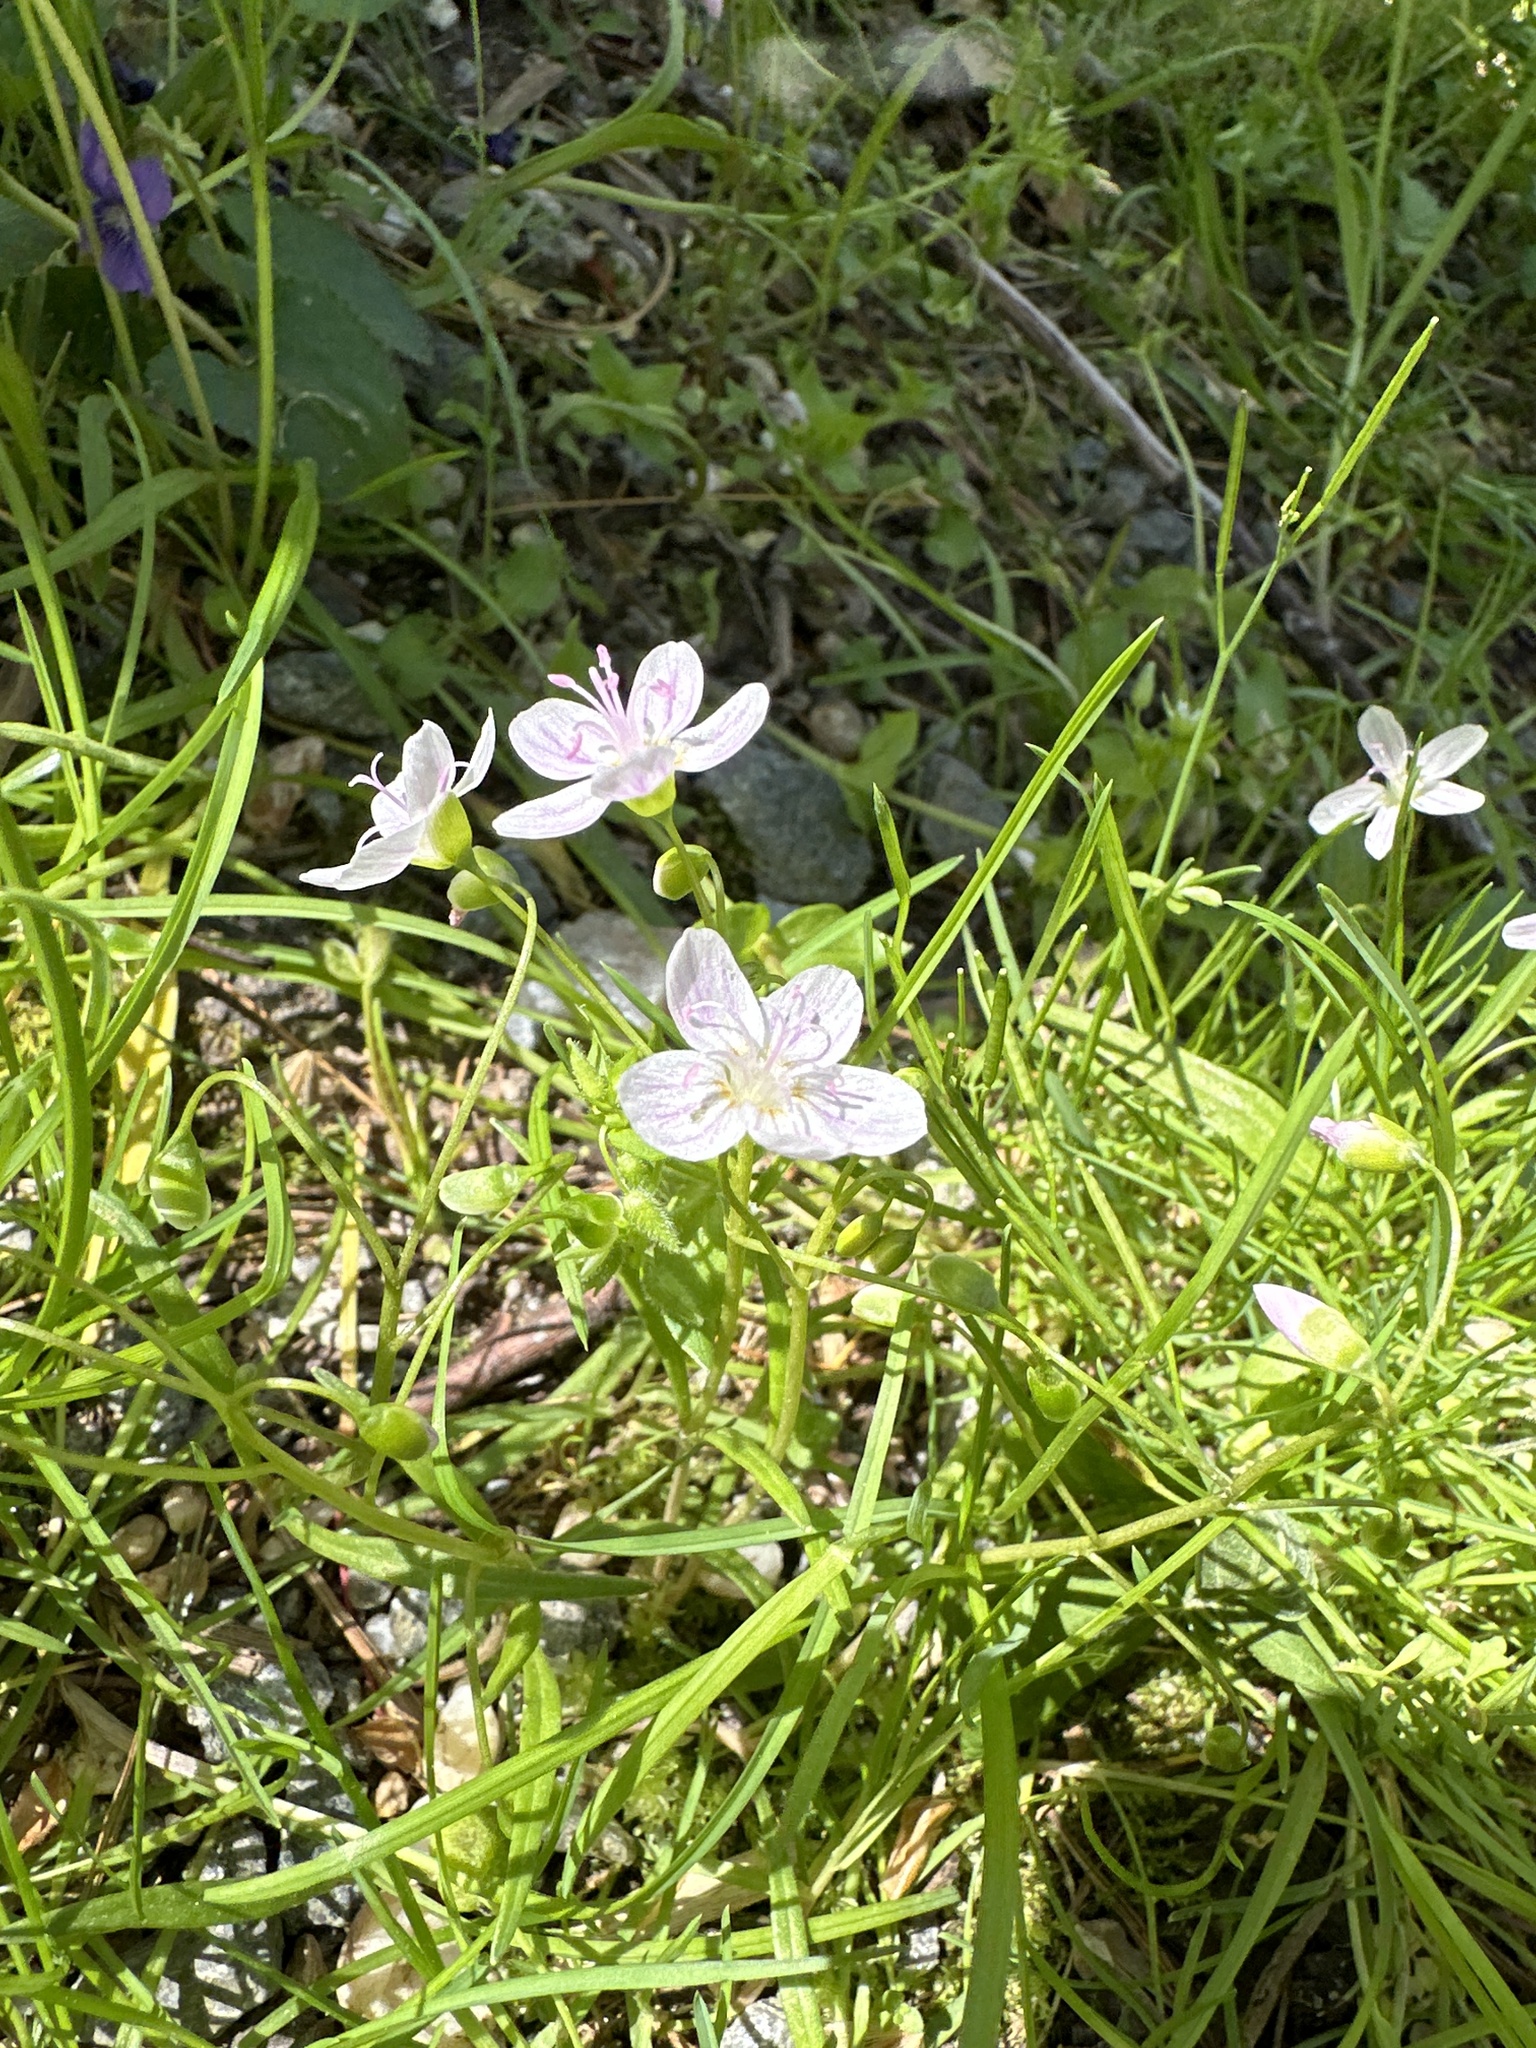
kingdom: Plantae
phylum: Tracheophyta
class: Magnoliopsida
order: Caryophyllales
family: Montiaceae
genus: Claytonia
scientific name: Claytonia virginica
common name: Virginia springbeauty
